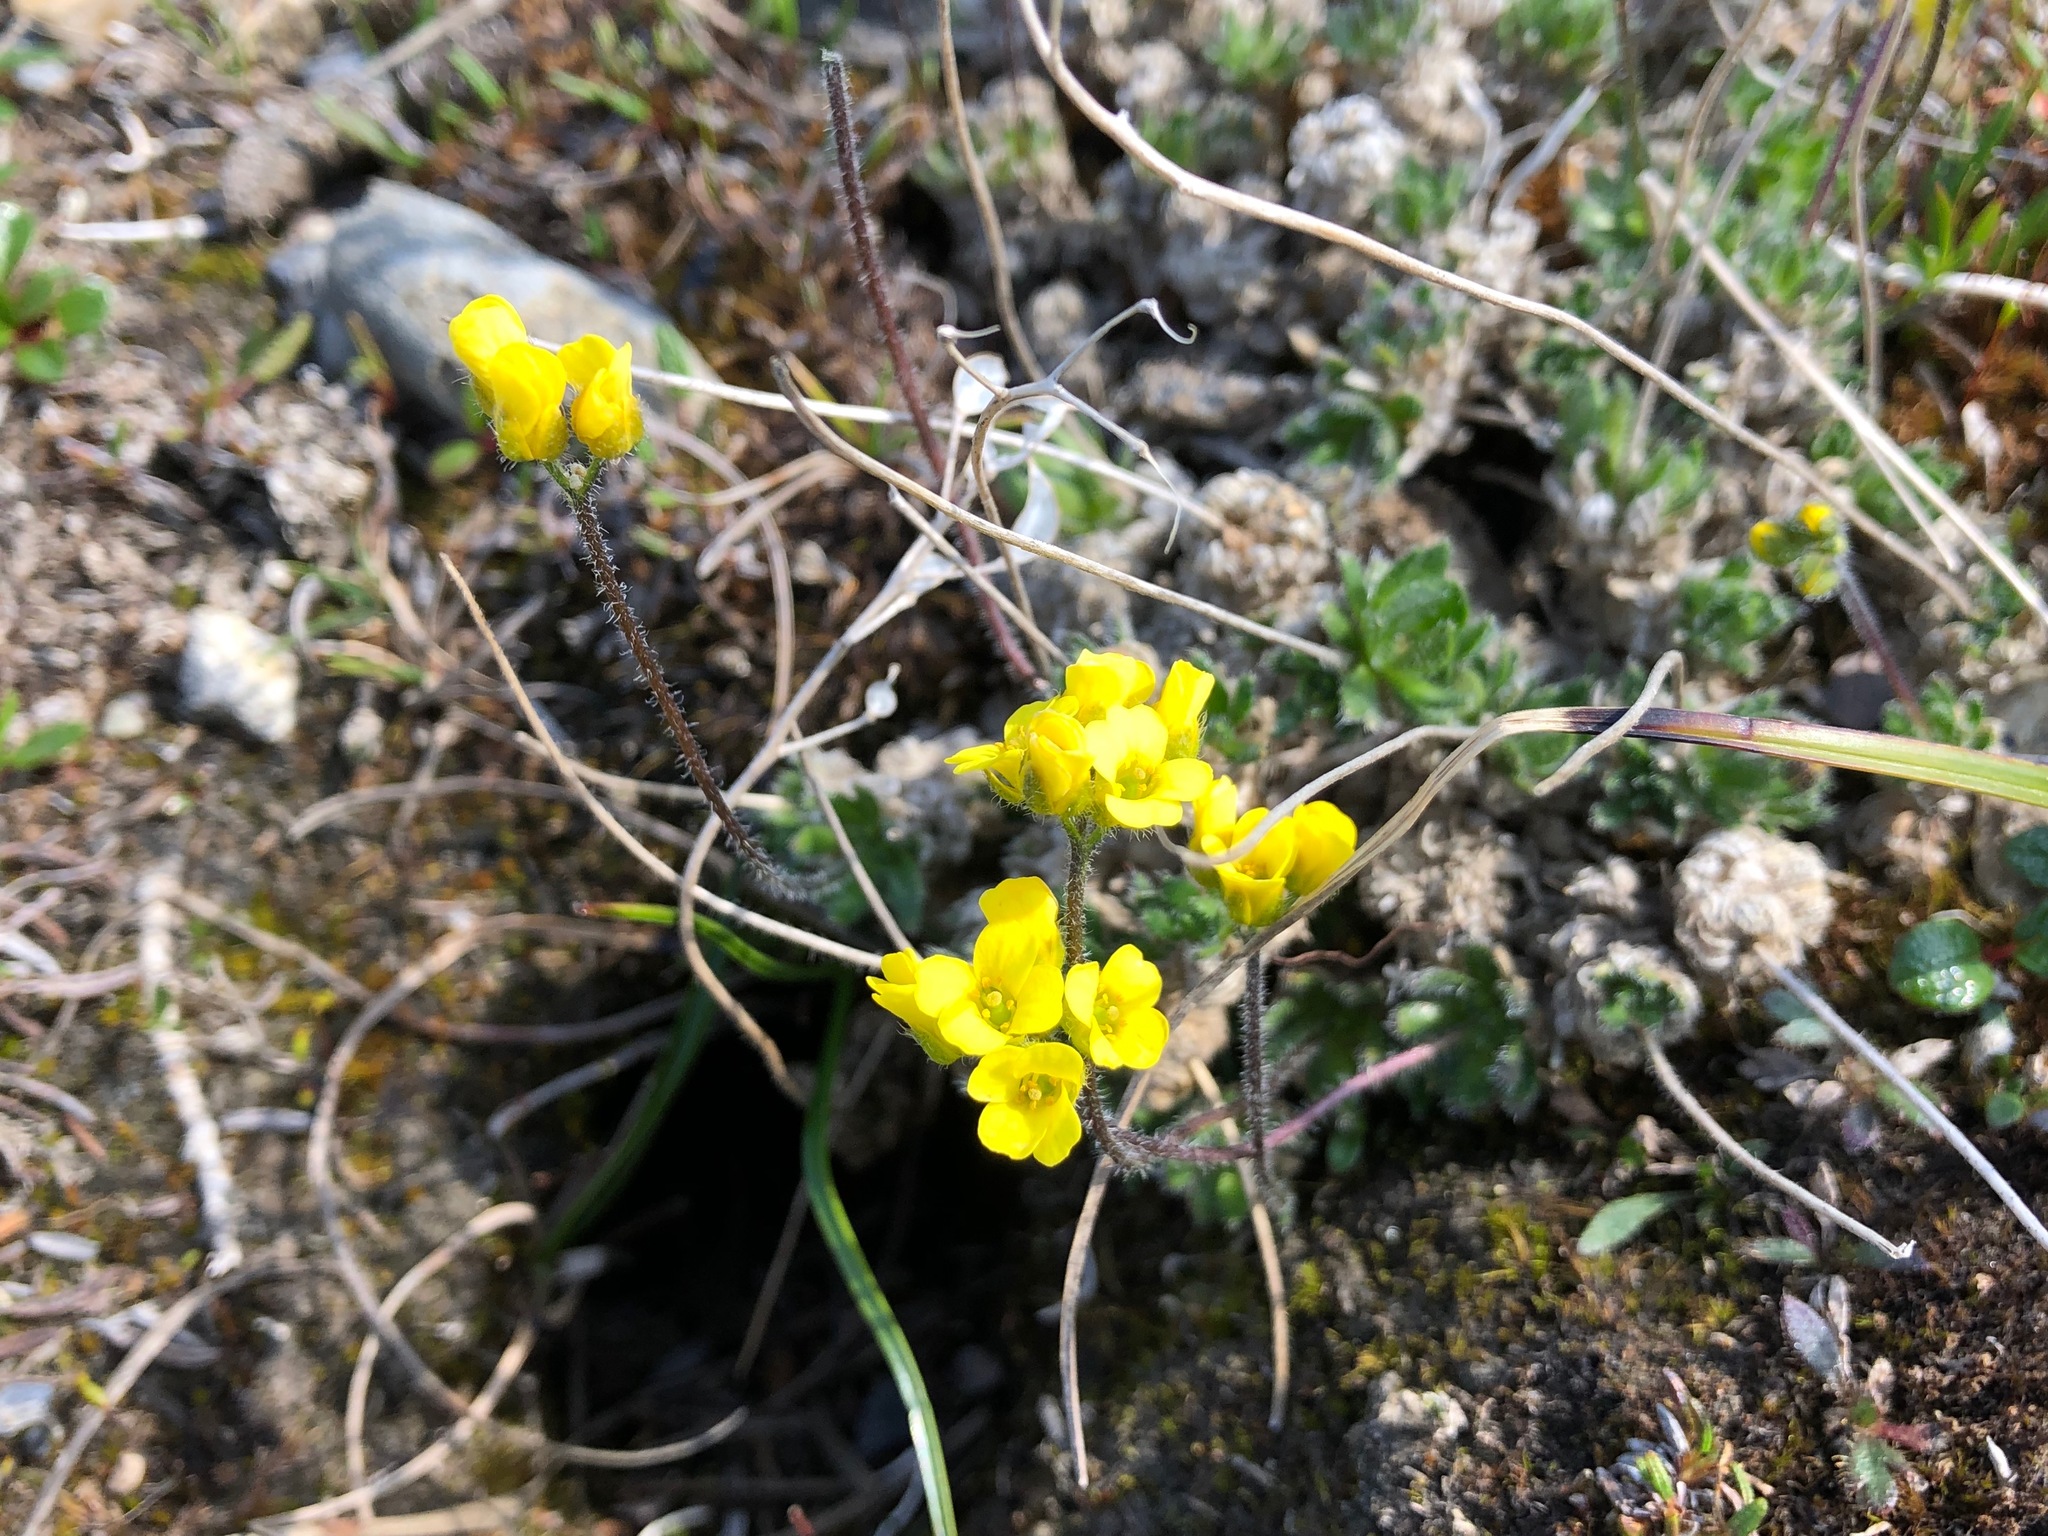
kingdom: Plantae
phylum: Tracheophyta
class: Magnoliopsida
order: Brassicales
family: Brassicaceae
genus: Draba
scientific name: Draba corymbosa
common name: Cushion whitlow-grass
